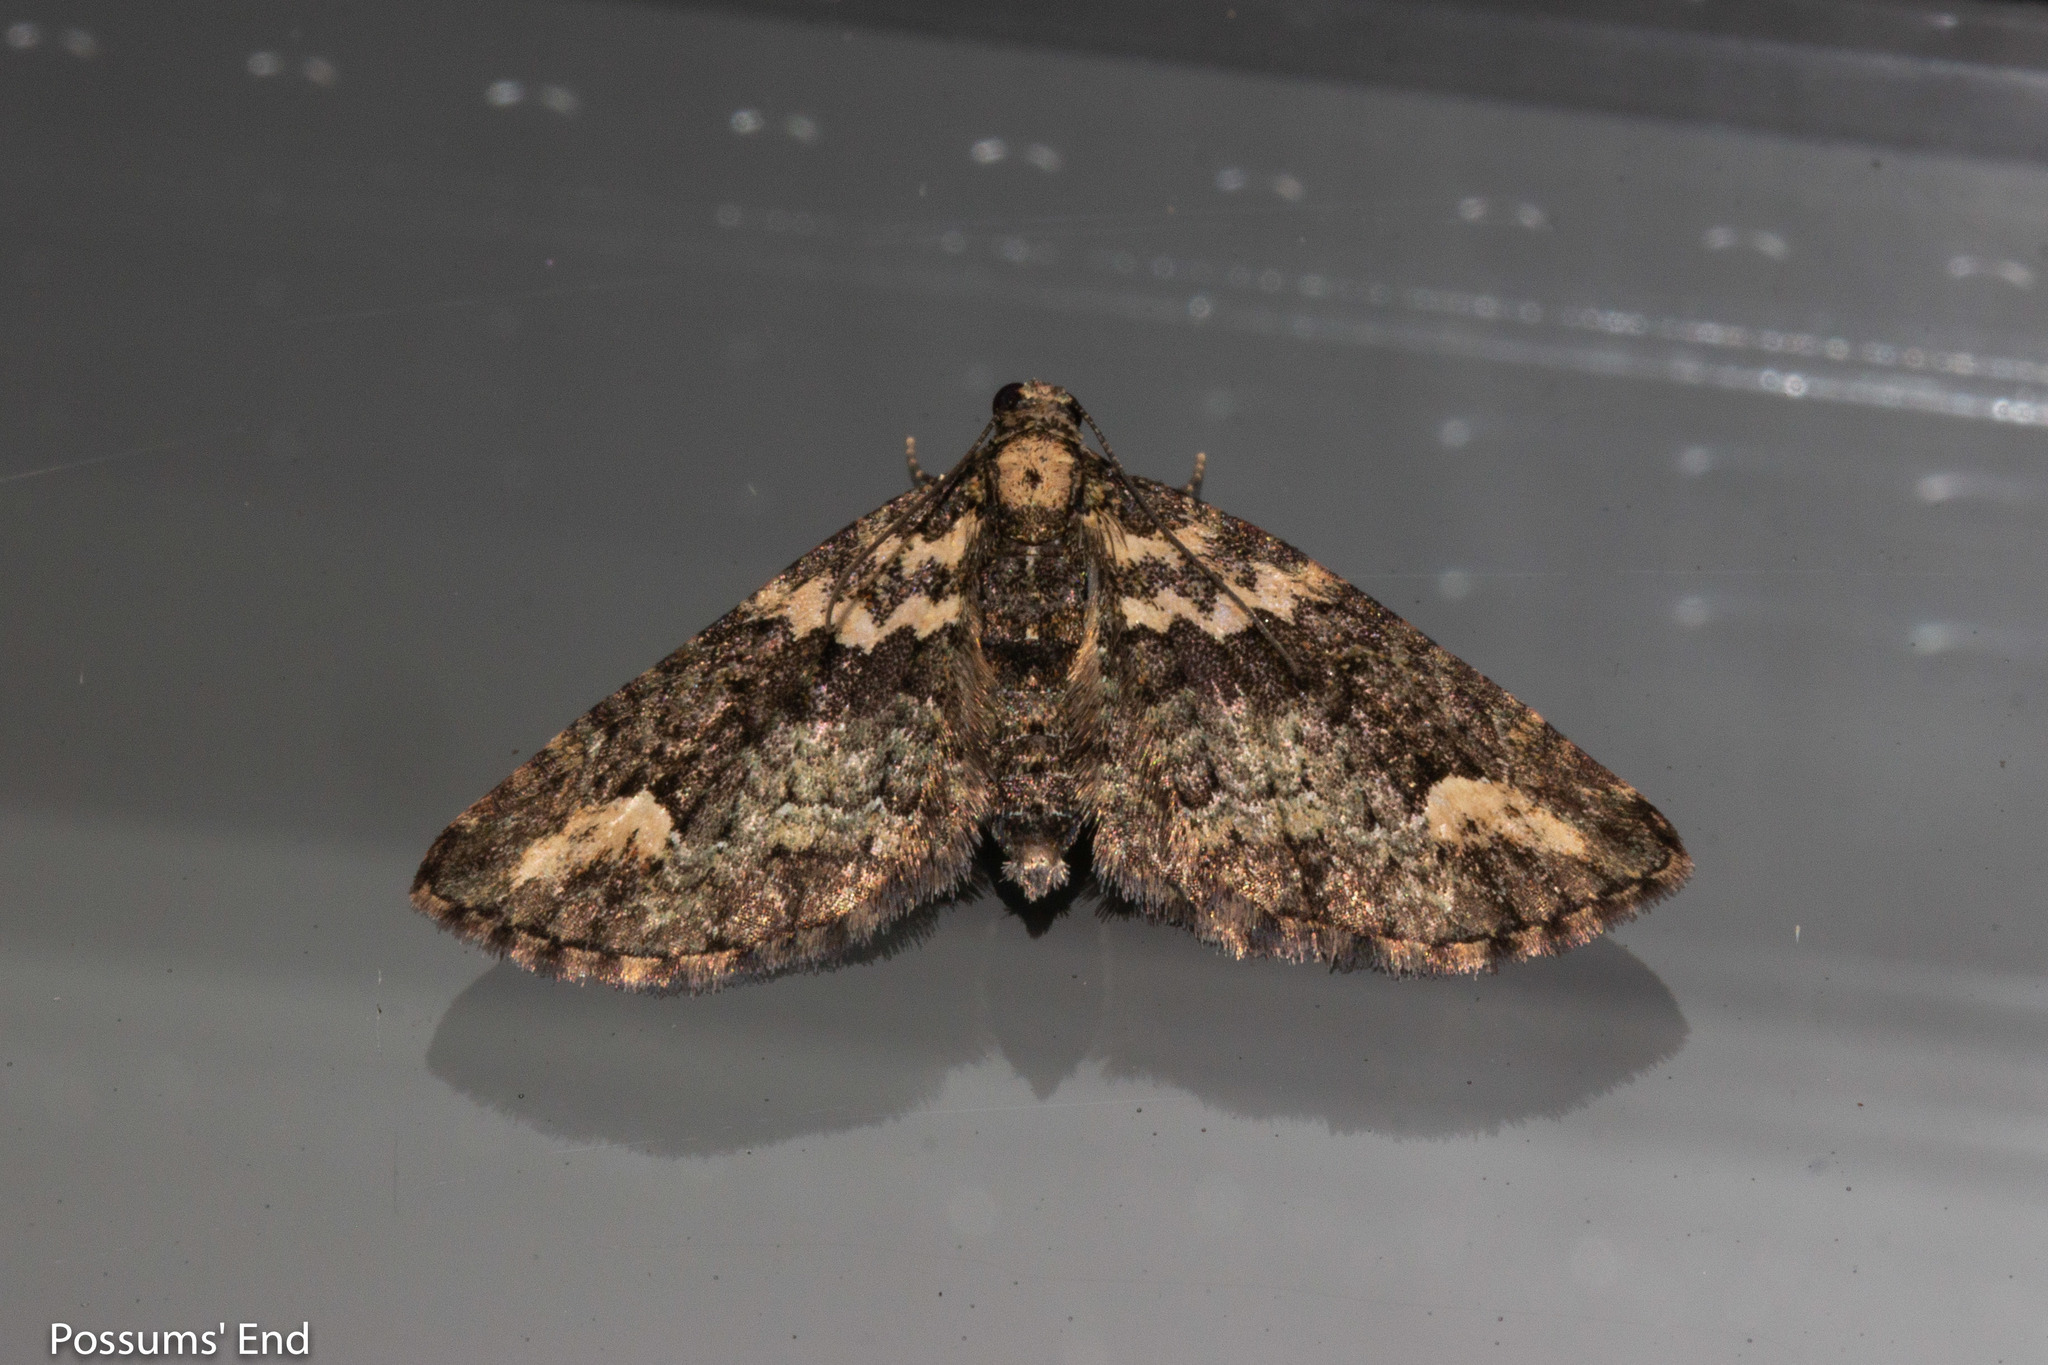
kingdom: Animalia
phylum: Arthropoda
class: Insecta
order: Lepidoptera
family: Geometridae
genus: Pasiphilodes
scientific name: Pasiphilodes testulata
